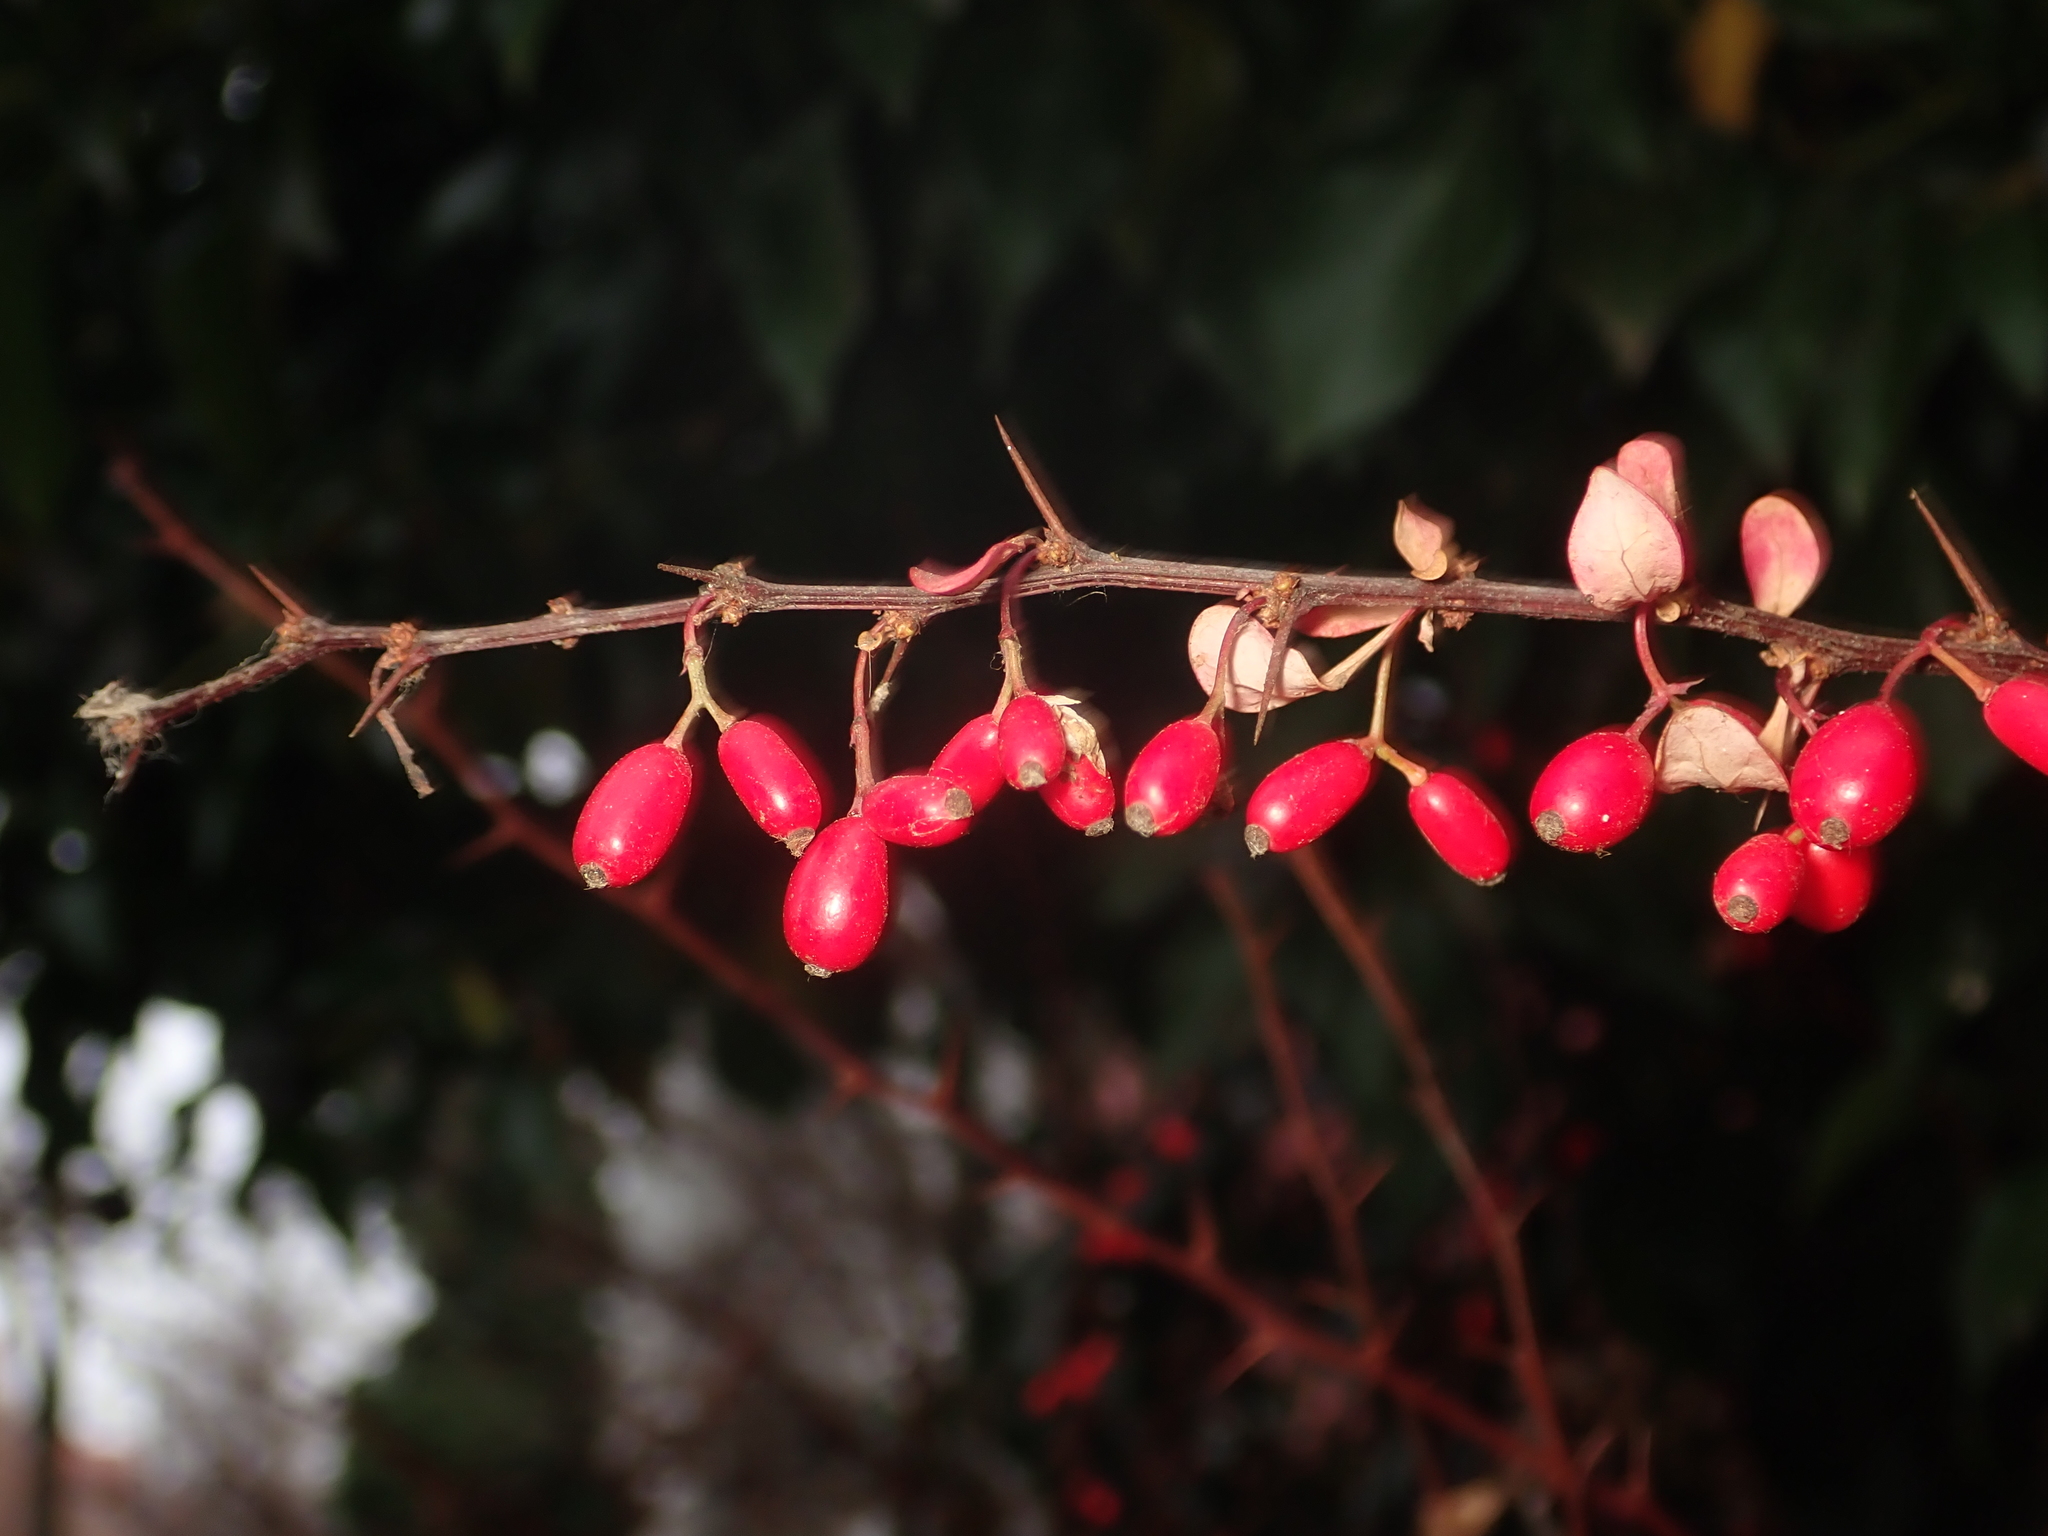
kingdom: Plantae
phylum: Tracheophyta
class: Magnoliopsida
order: Ranunculales
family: Berberidaceae
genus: Berberis
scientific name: Berberis vulgaris
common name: Barberry
